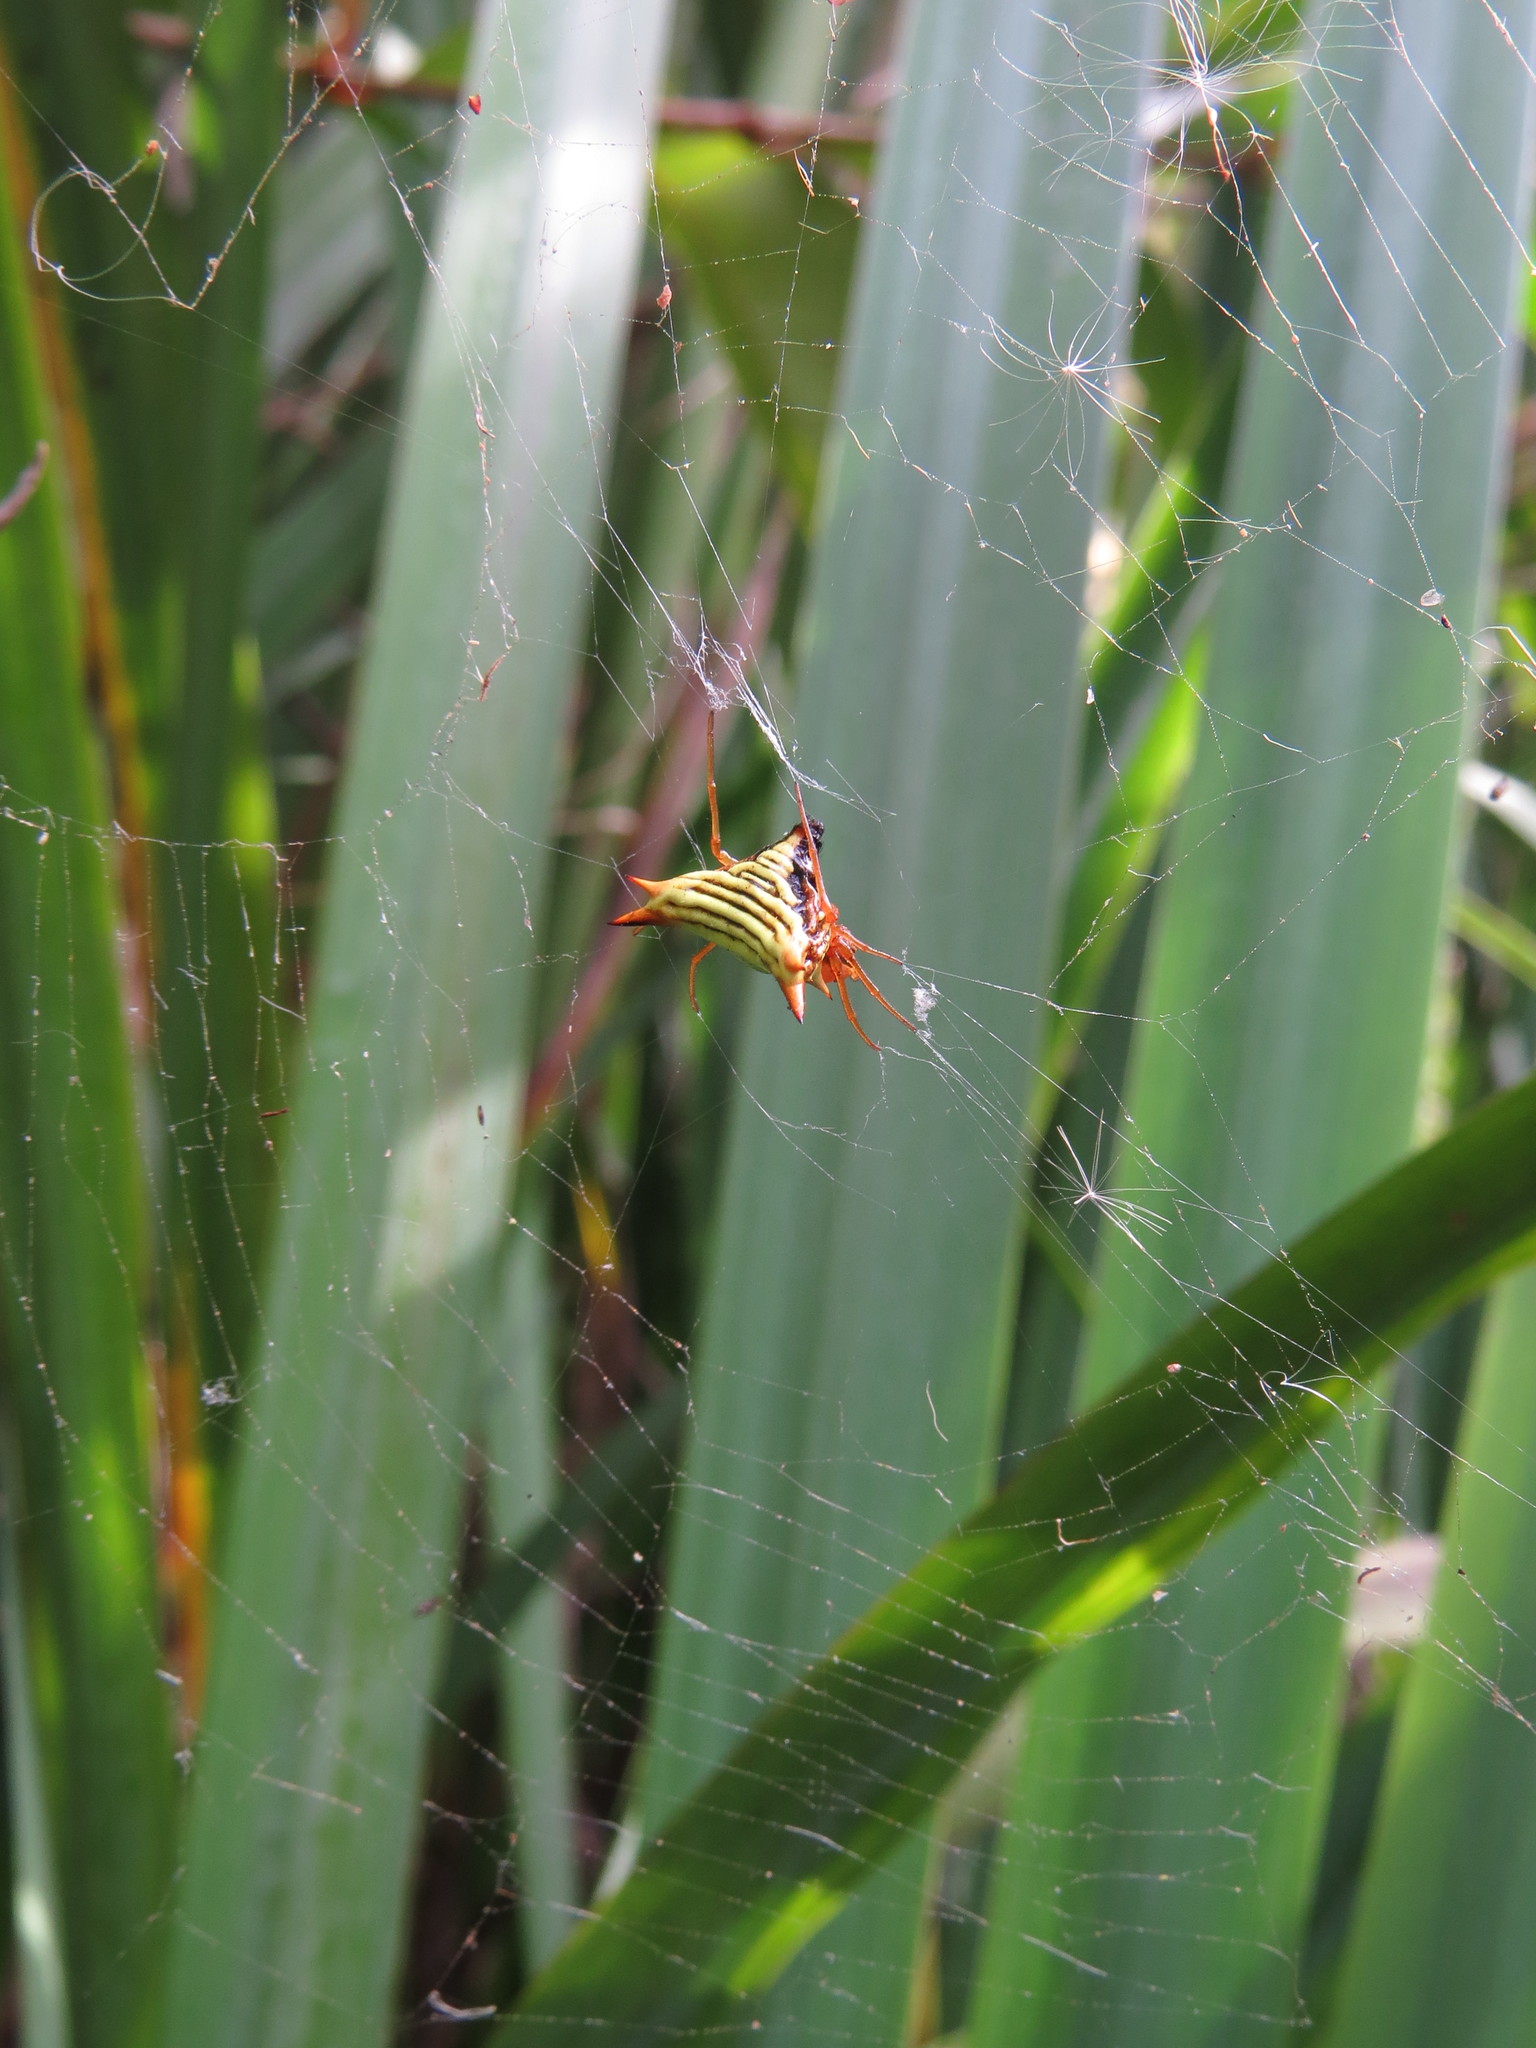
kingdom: Animalia
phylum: Arthropoda
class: Arachnida
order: Araneae
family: Araneidae
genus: Micrathena
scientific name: Micrathena furcata
